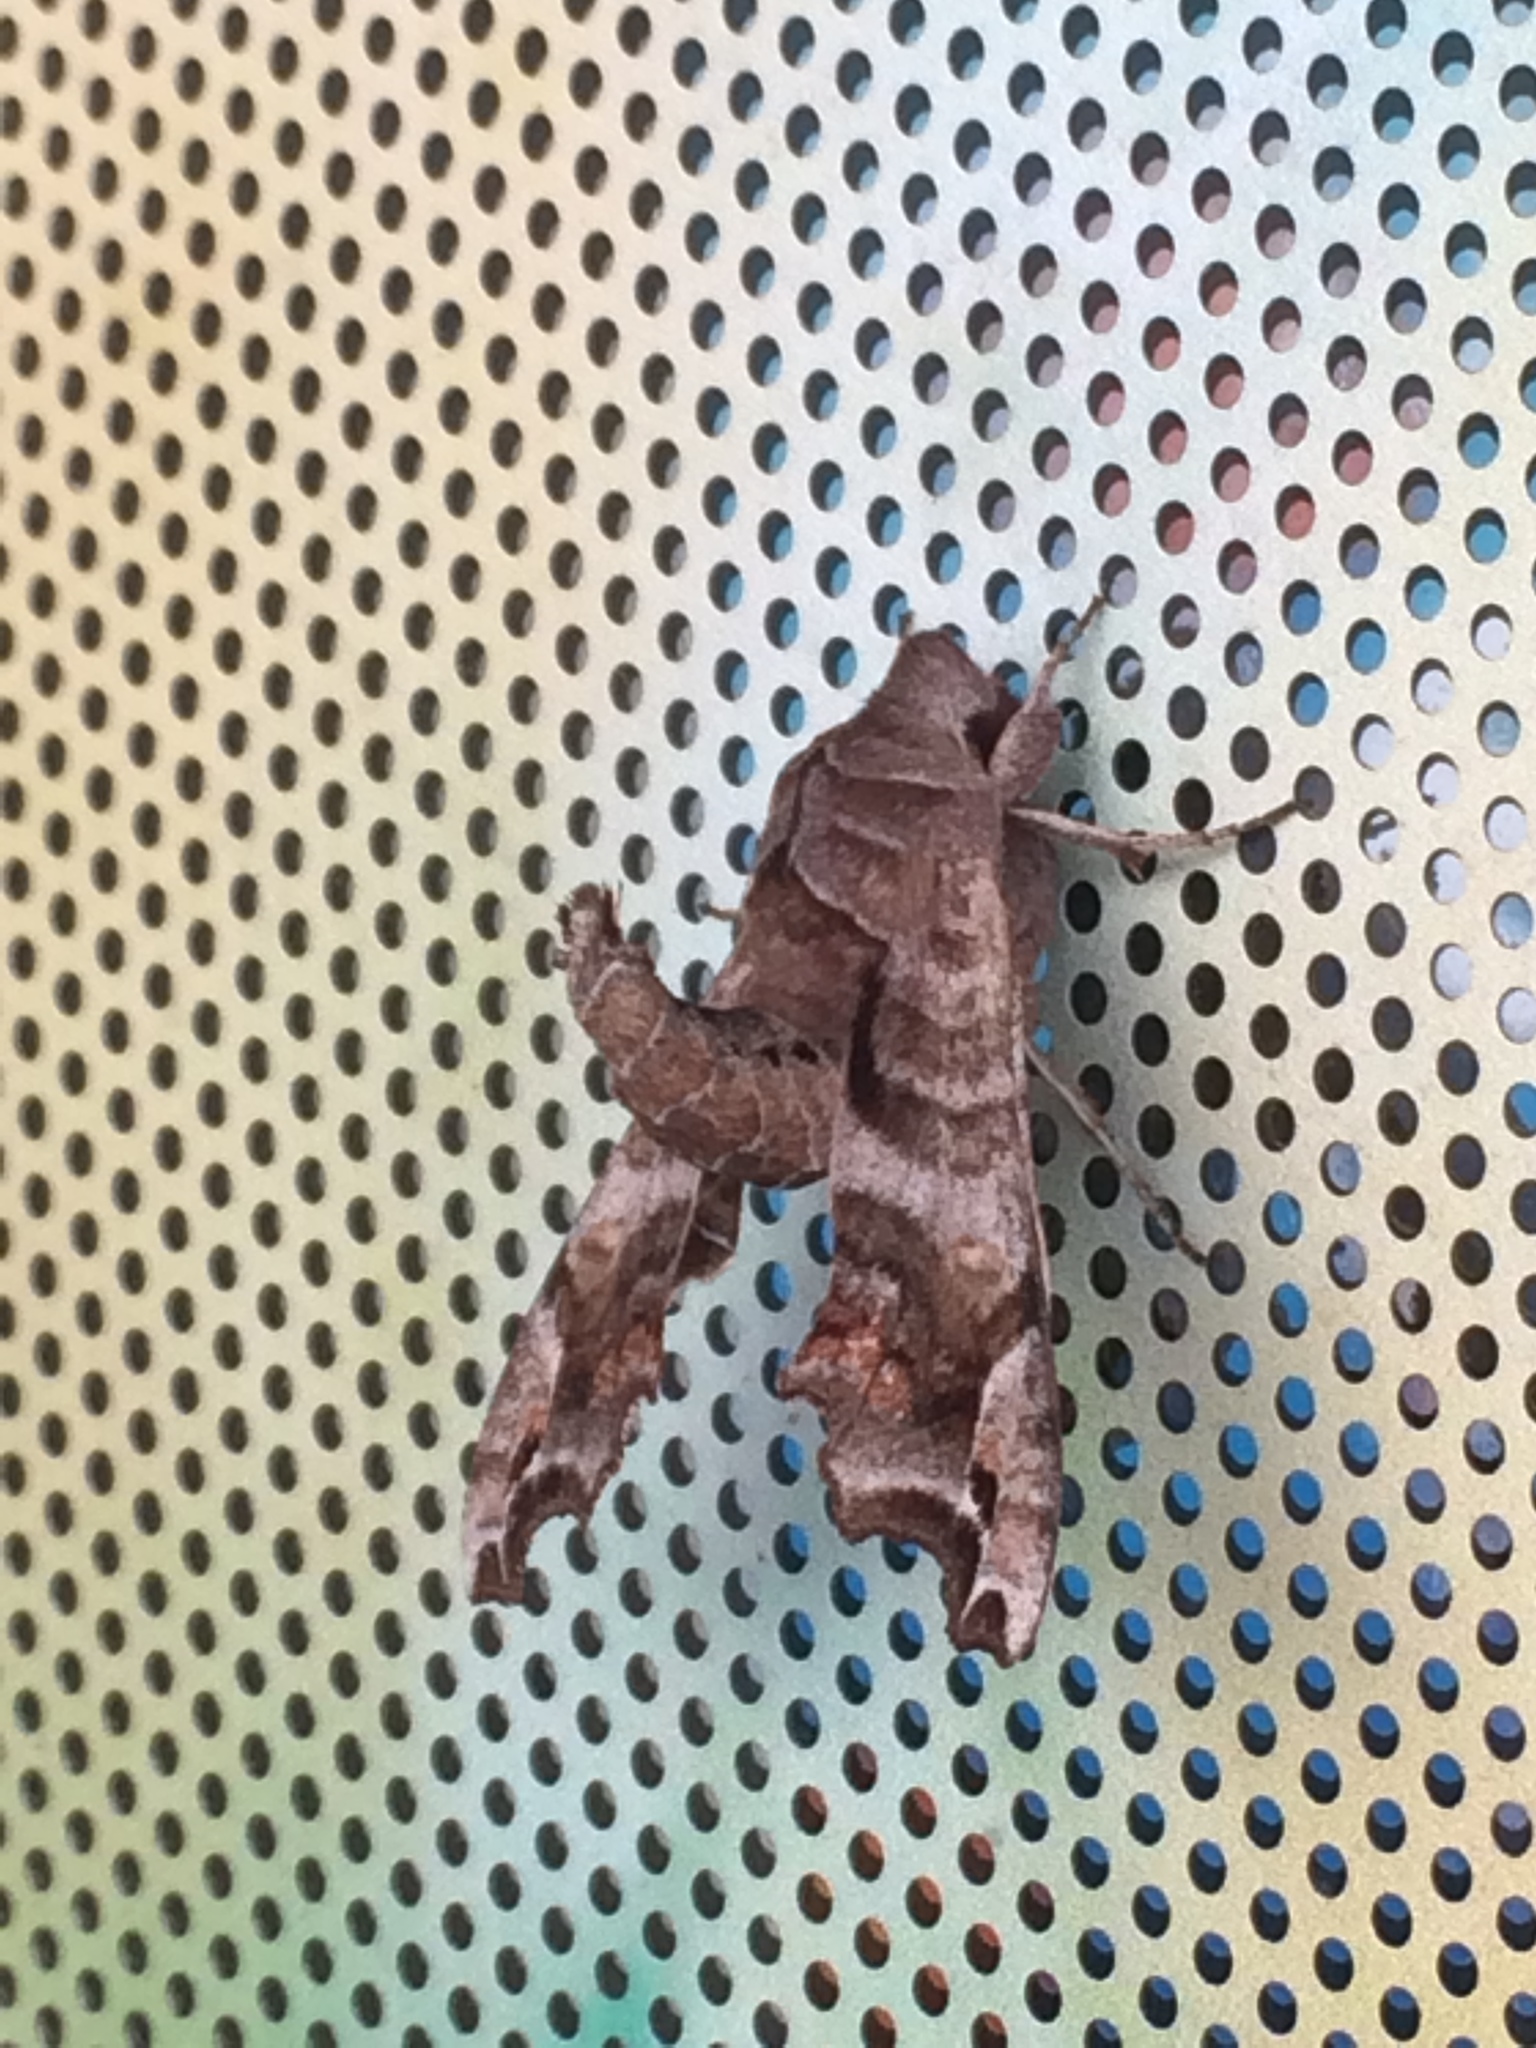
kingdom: Animalia
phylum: Arthropoda
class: Insecta
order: Lepidoptera
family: Sphingidae
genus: Deidamia
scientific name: Deidamia inscriptum
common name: Lettered sphinx
